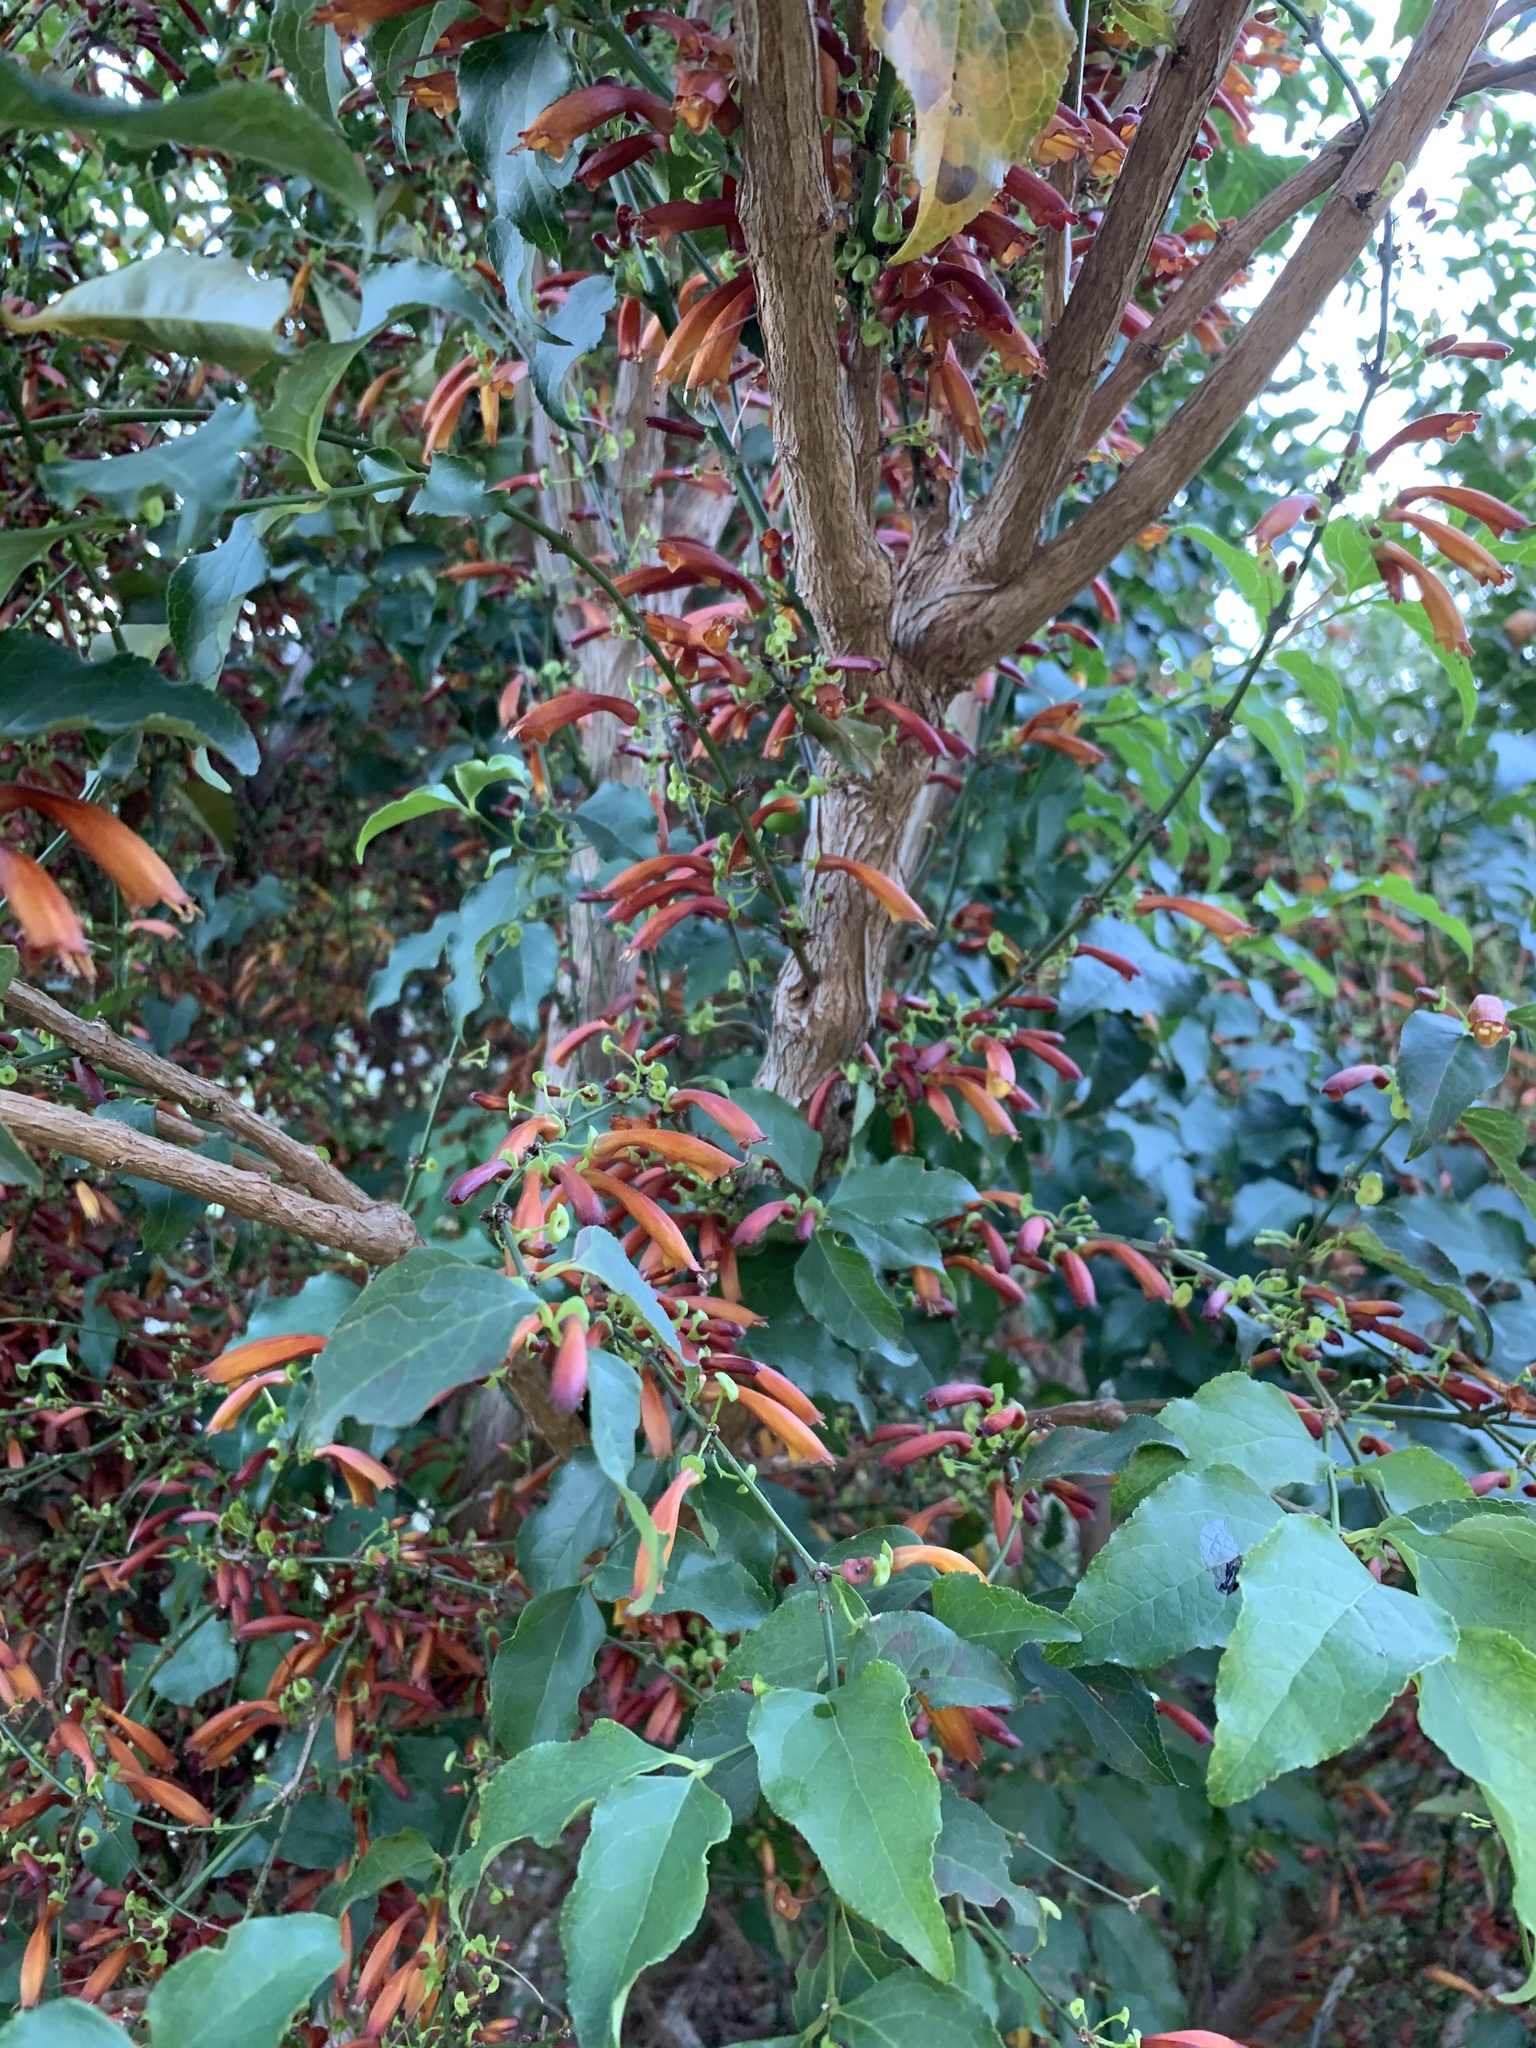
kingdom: Plantae
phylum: Tracheophyta
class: Magnoliopsida
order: Lamiales
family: Stilbaceae
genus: Halleria
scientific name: Halleria lucida
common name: Tree fuschia
